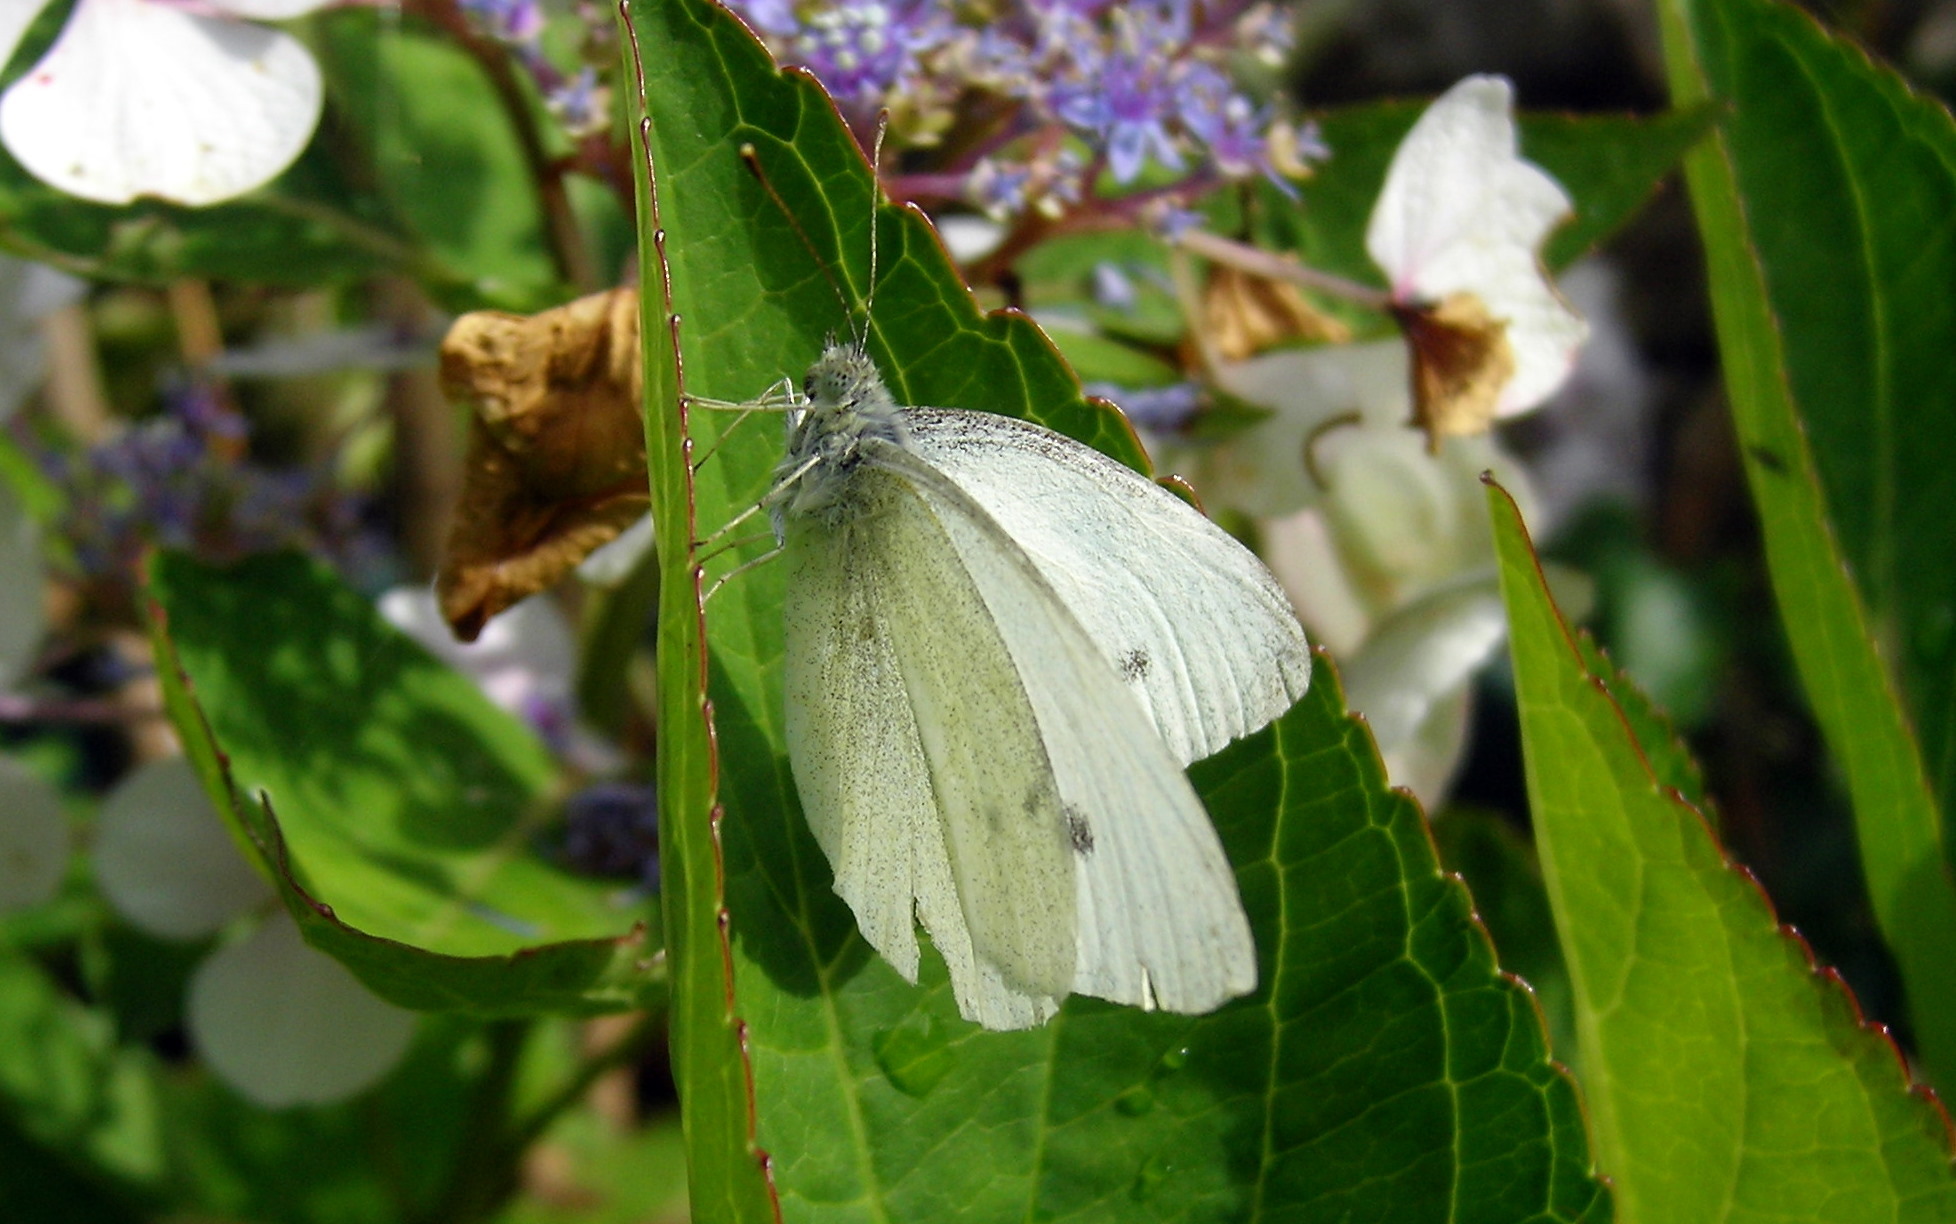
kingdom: Animalia
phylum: Arthropoda
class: Insecta
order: Lepidoptera
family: Pieridae
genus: Pieris
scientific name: Pieris rapae
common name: Small white
